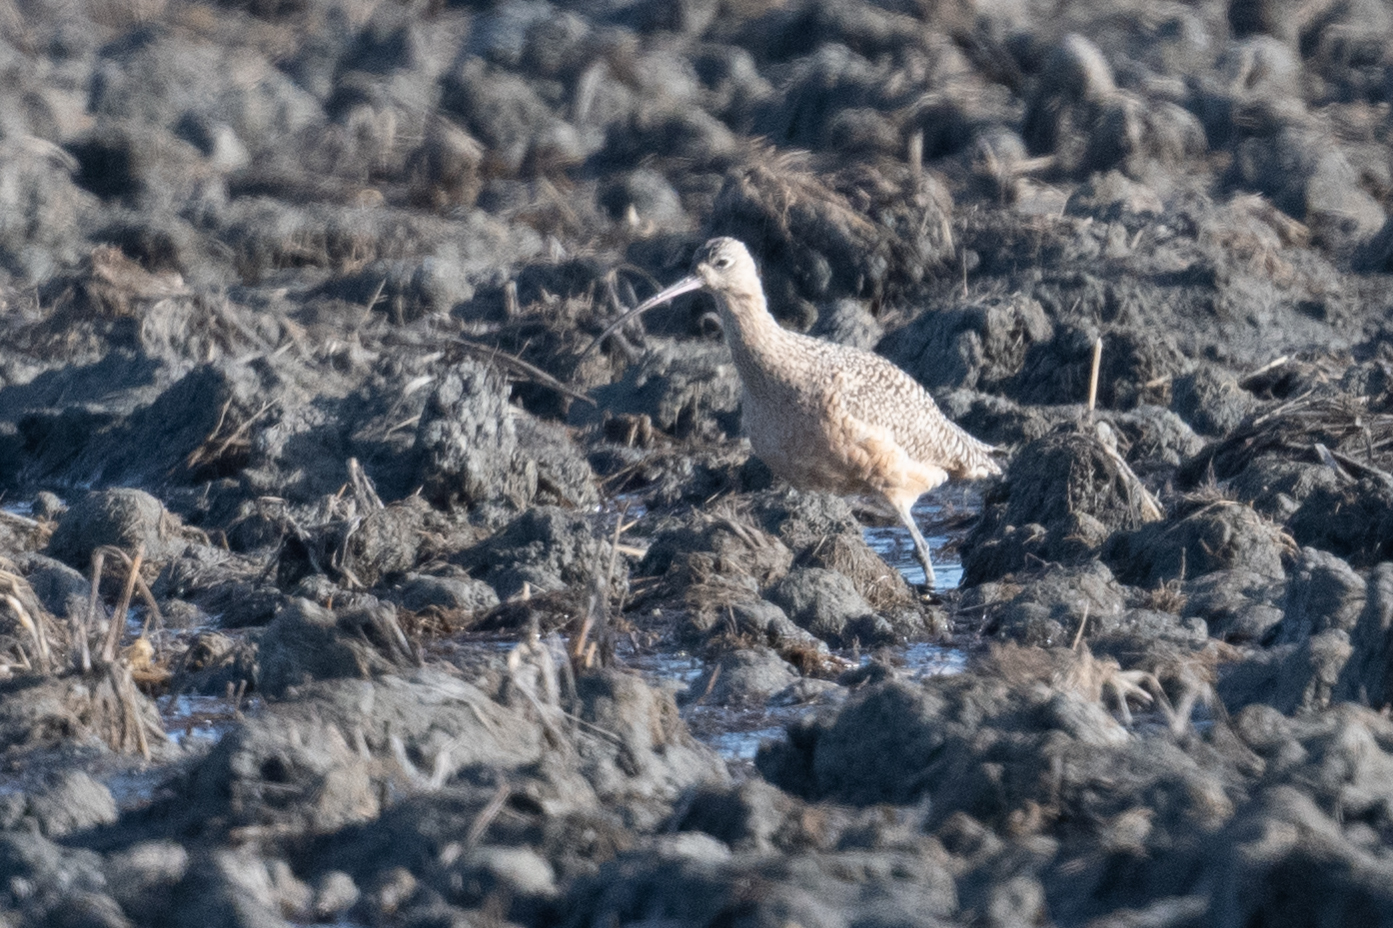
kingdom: Animalia
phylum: Chordata
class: Aves
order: Charadriiformes
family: Scolopacidae
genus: Numenius
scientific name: Numenius americanus
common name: Long-billed curlew
